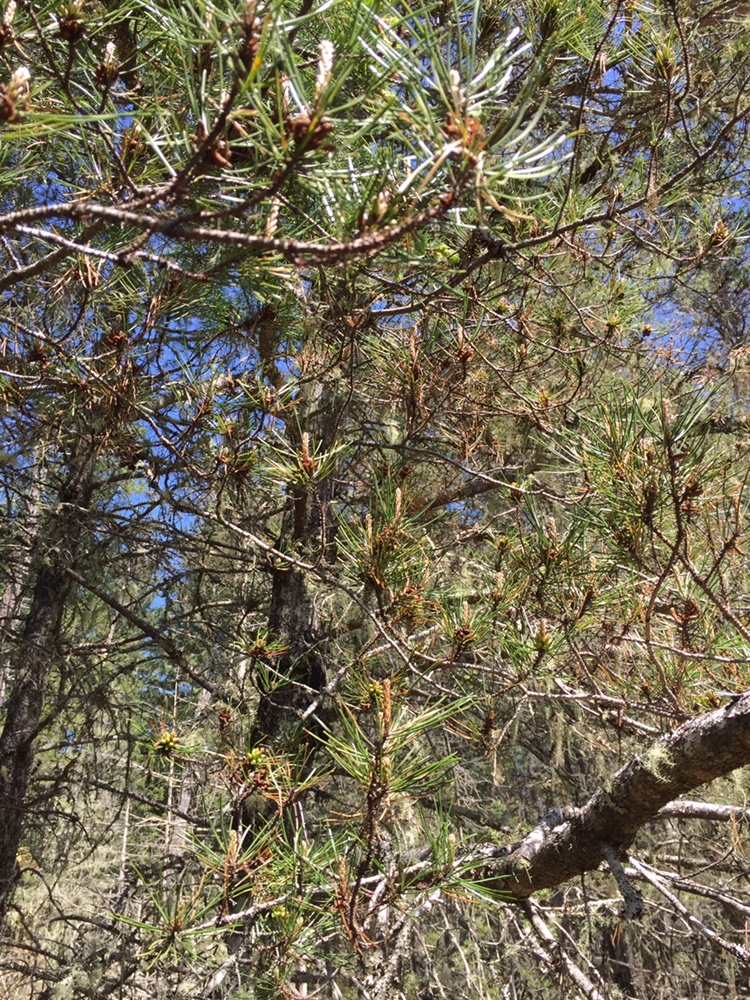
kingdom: Plantae
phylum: Tracheophyta
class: Pinopsida
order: Pinales
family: Pinaceae
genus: Pinus
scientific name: Pinus contorta
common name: Lodgepole pine
